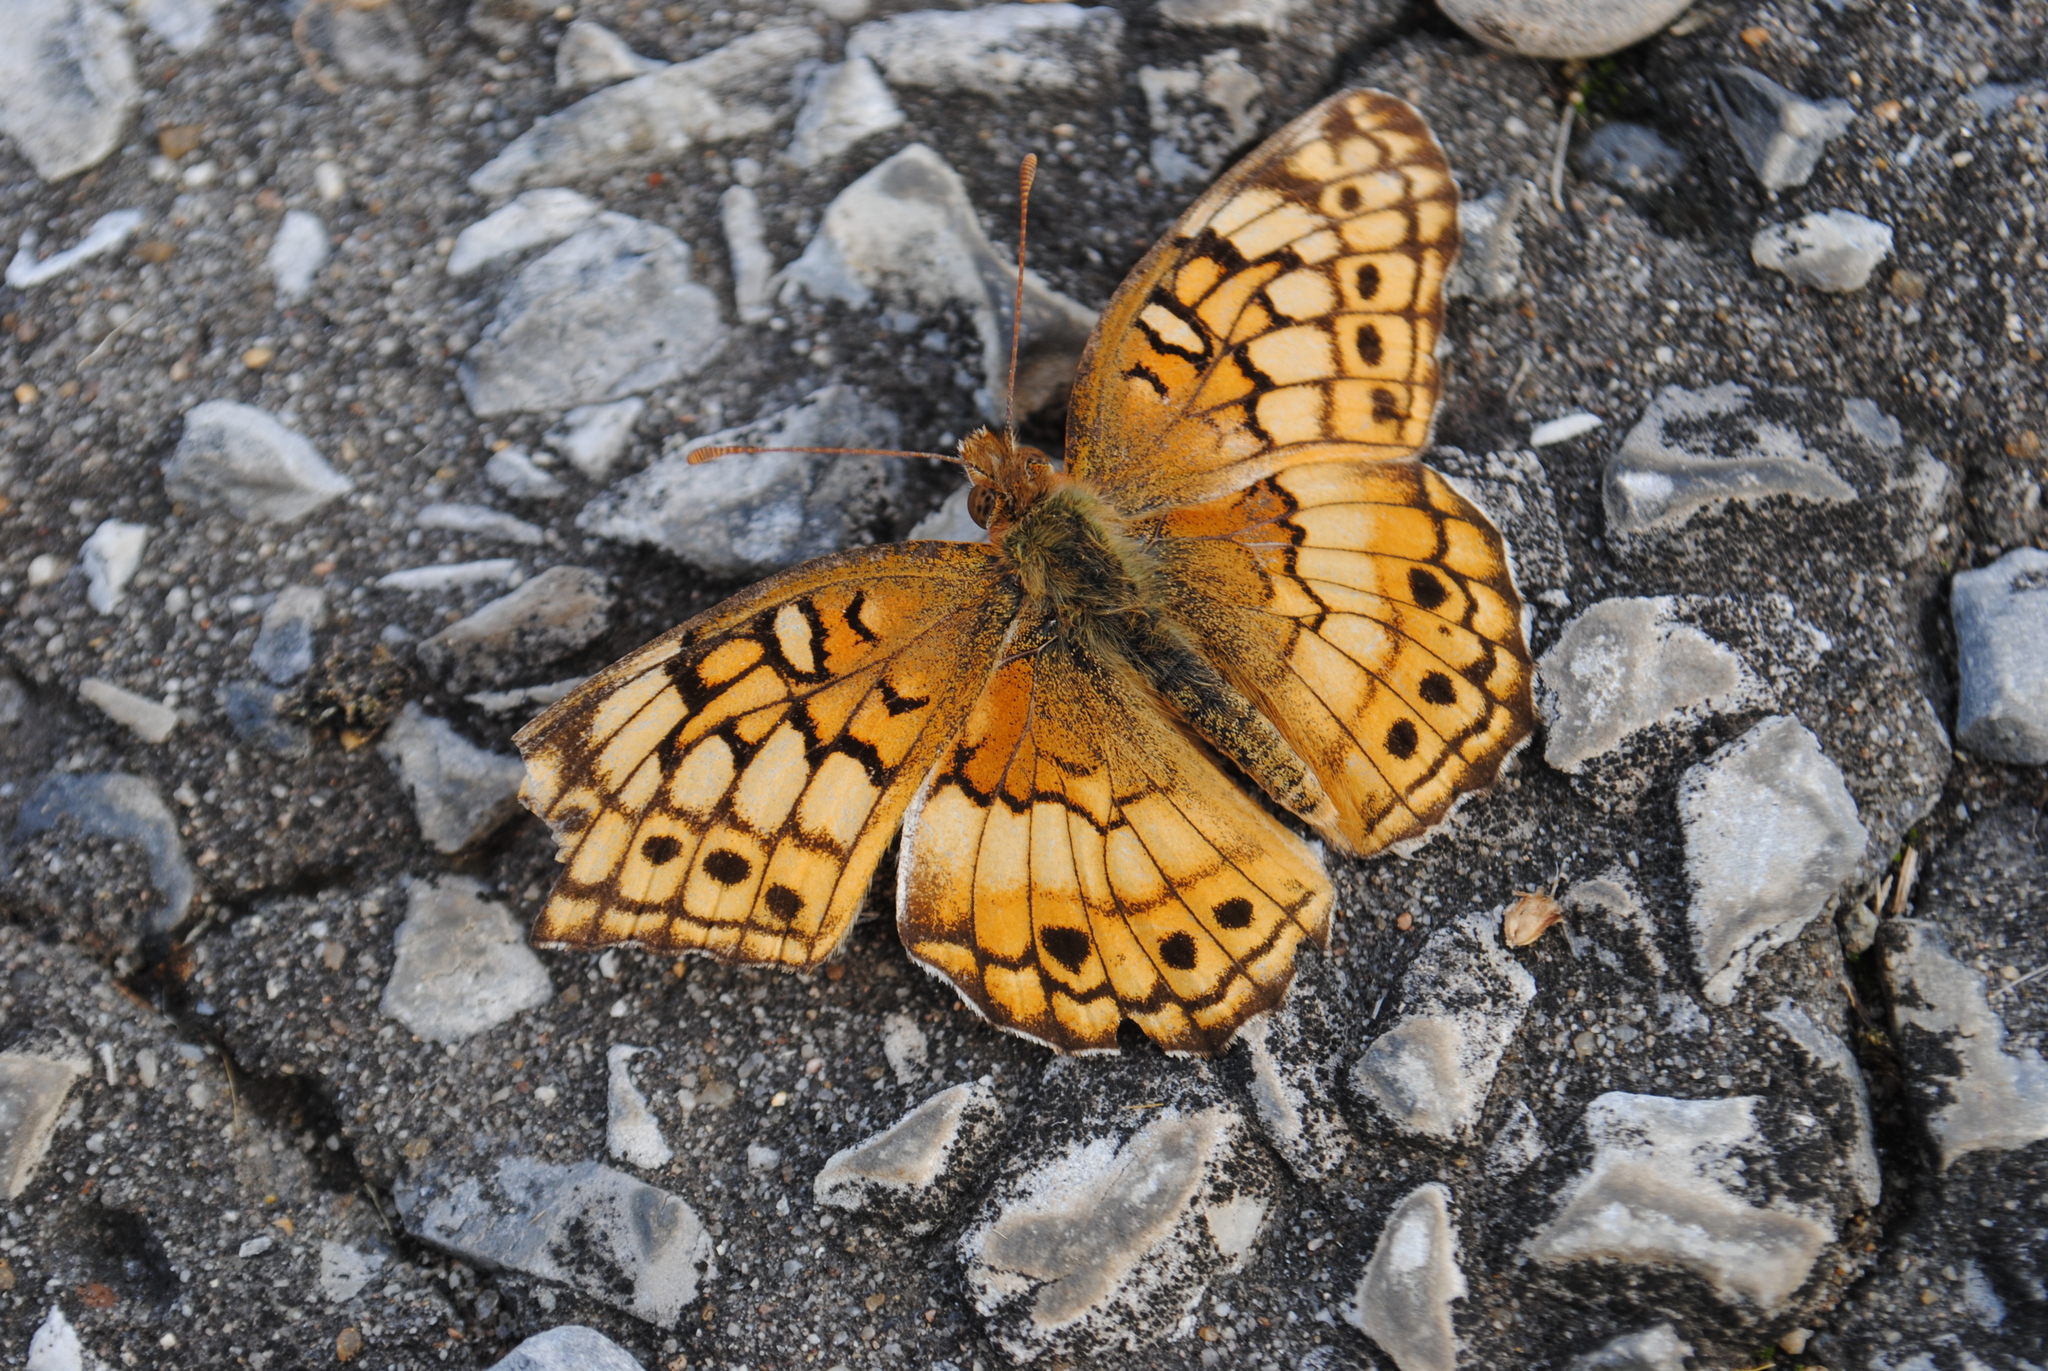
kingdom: Animalia
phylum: Arthropoda
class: Insecta
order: Lepidoptera
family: Nymphalidae
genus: Euptoieta
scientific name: Euptoieta claudia
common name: Variegated fritillary
